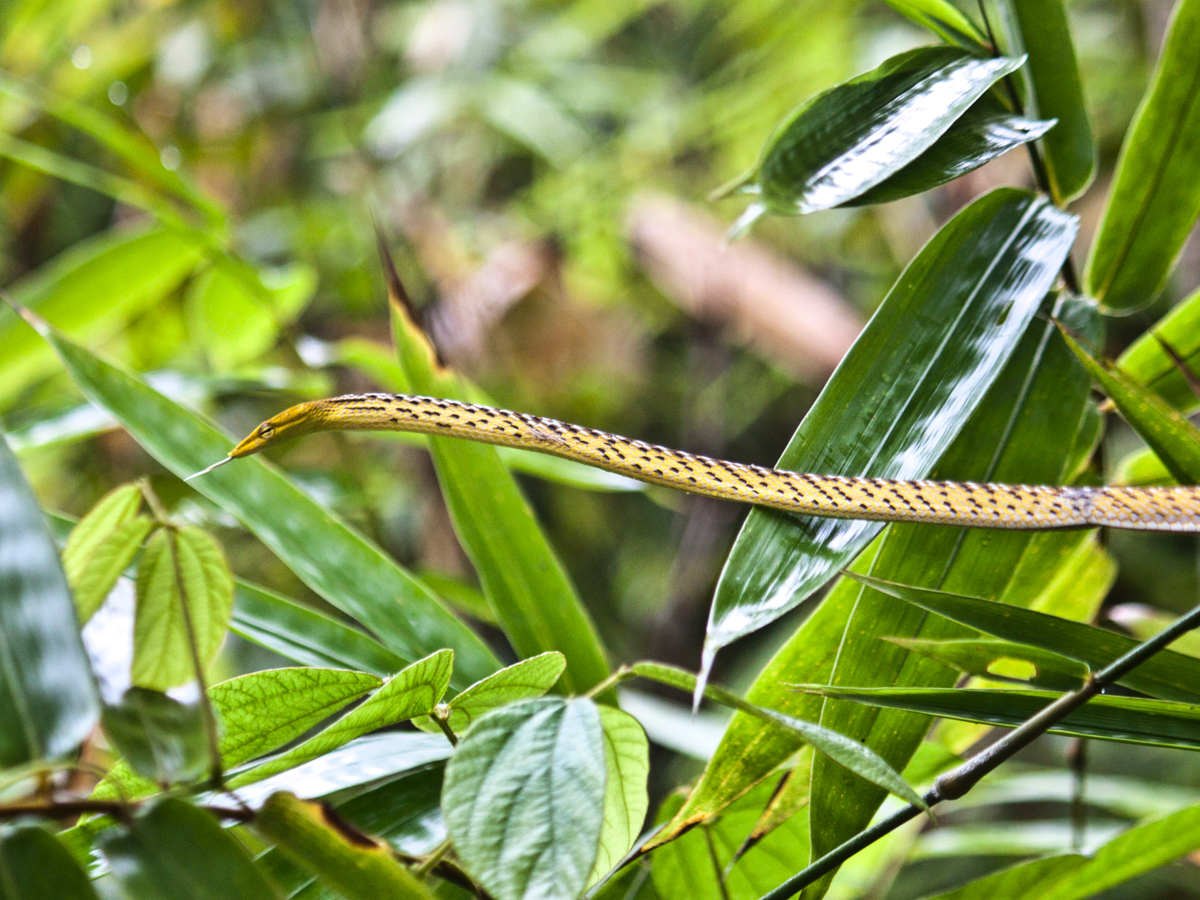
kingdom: Animalia
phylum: Chordata
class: Squamata
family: Colubridae
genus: Ahaetulla
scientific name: Ahaetulla prasina
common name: Oriental whip snake
